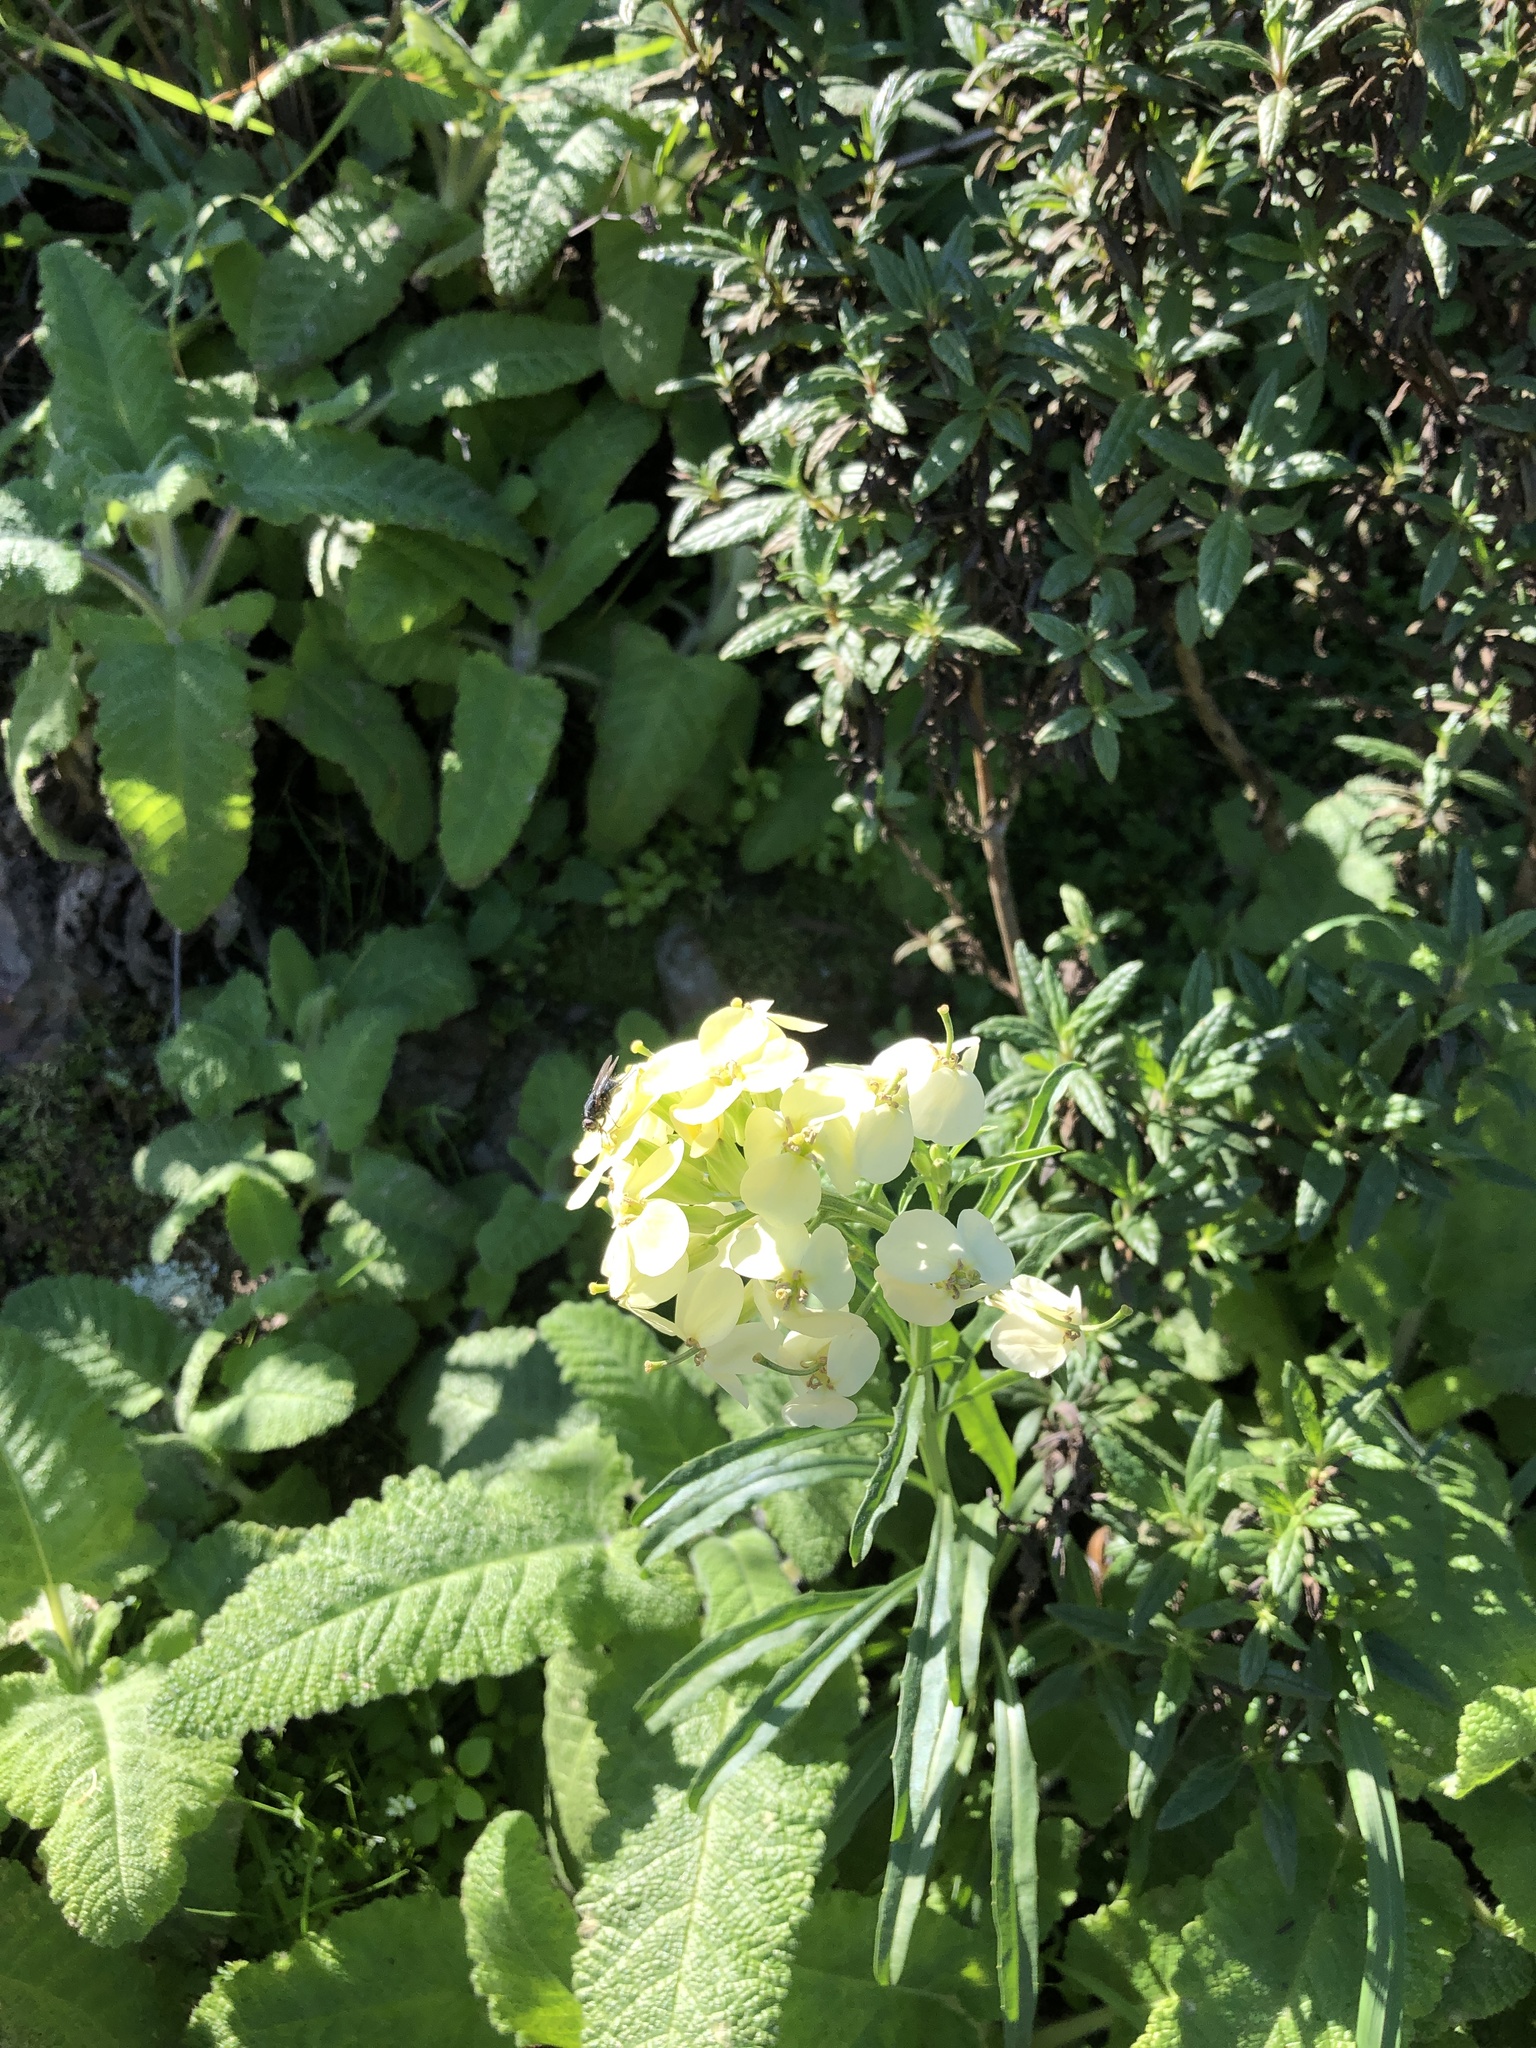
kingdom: Plantae
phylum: Tracheophyta
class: Magnoliopsida
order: Brassicales
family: Brassicaceae
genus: Erysimum
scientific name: Erysimum franciscanum
